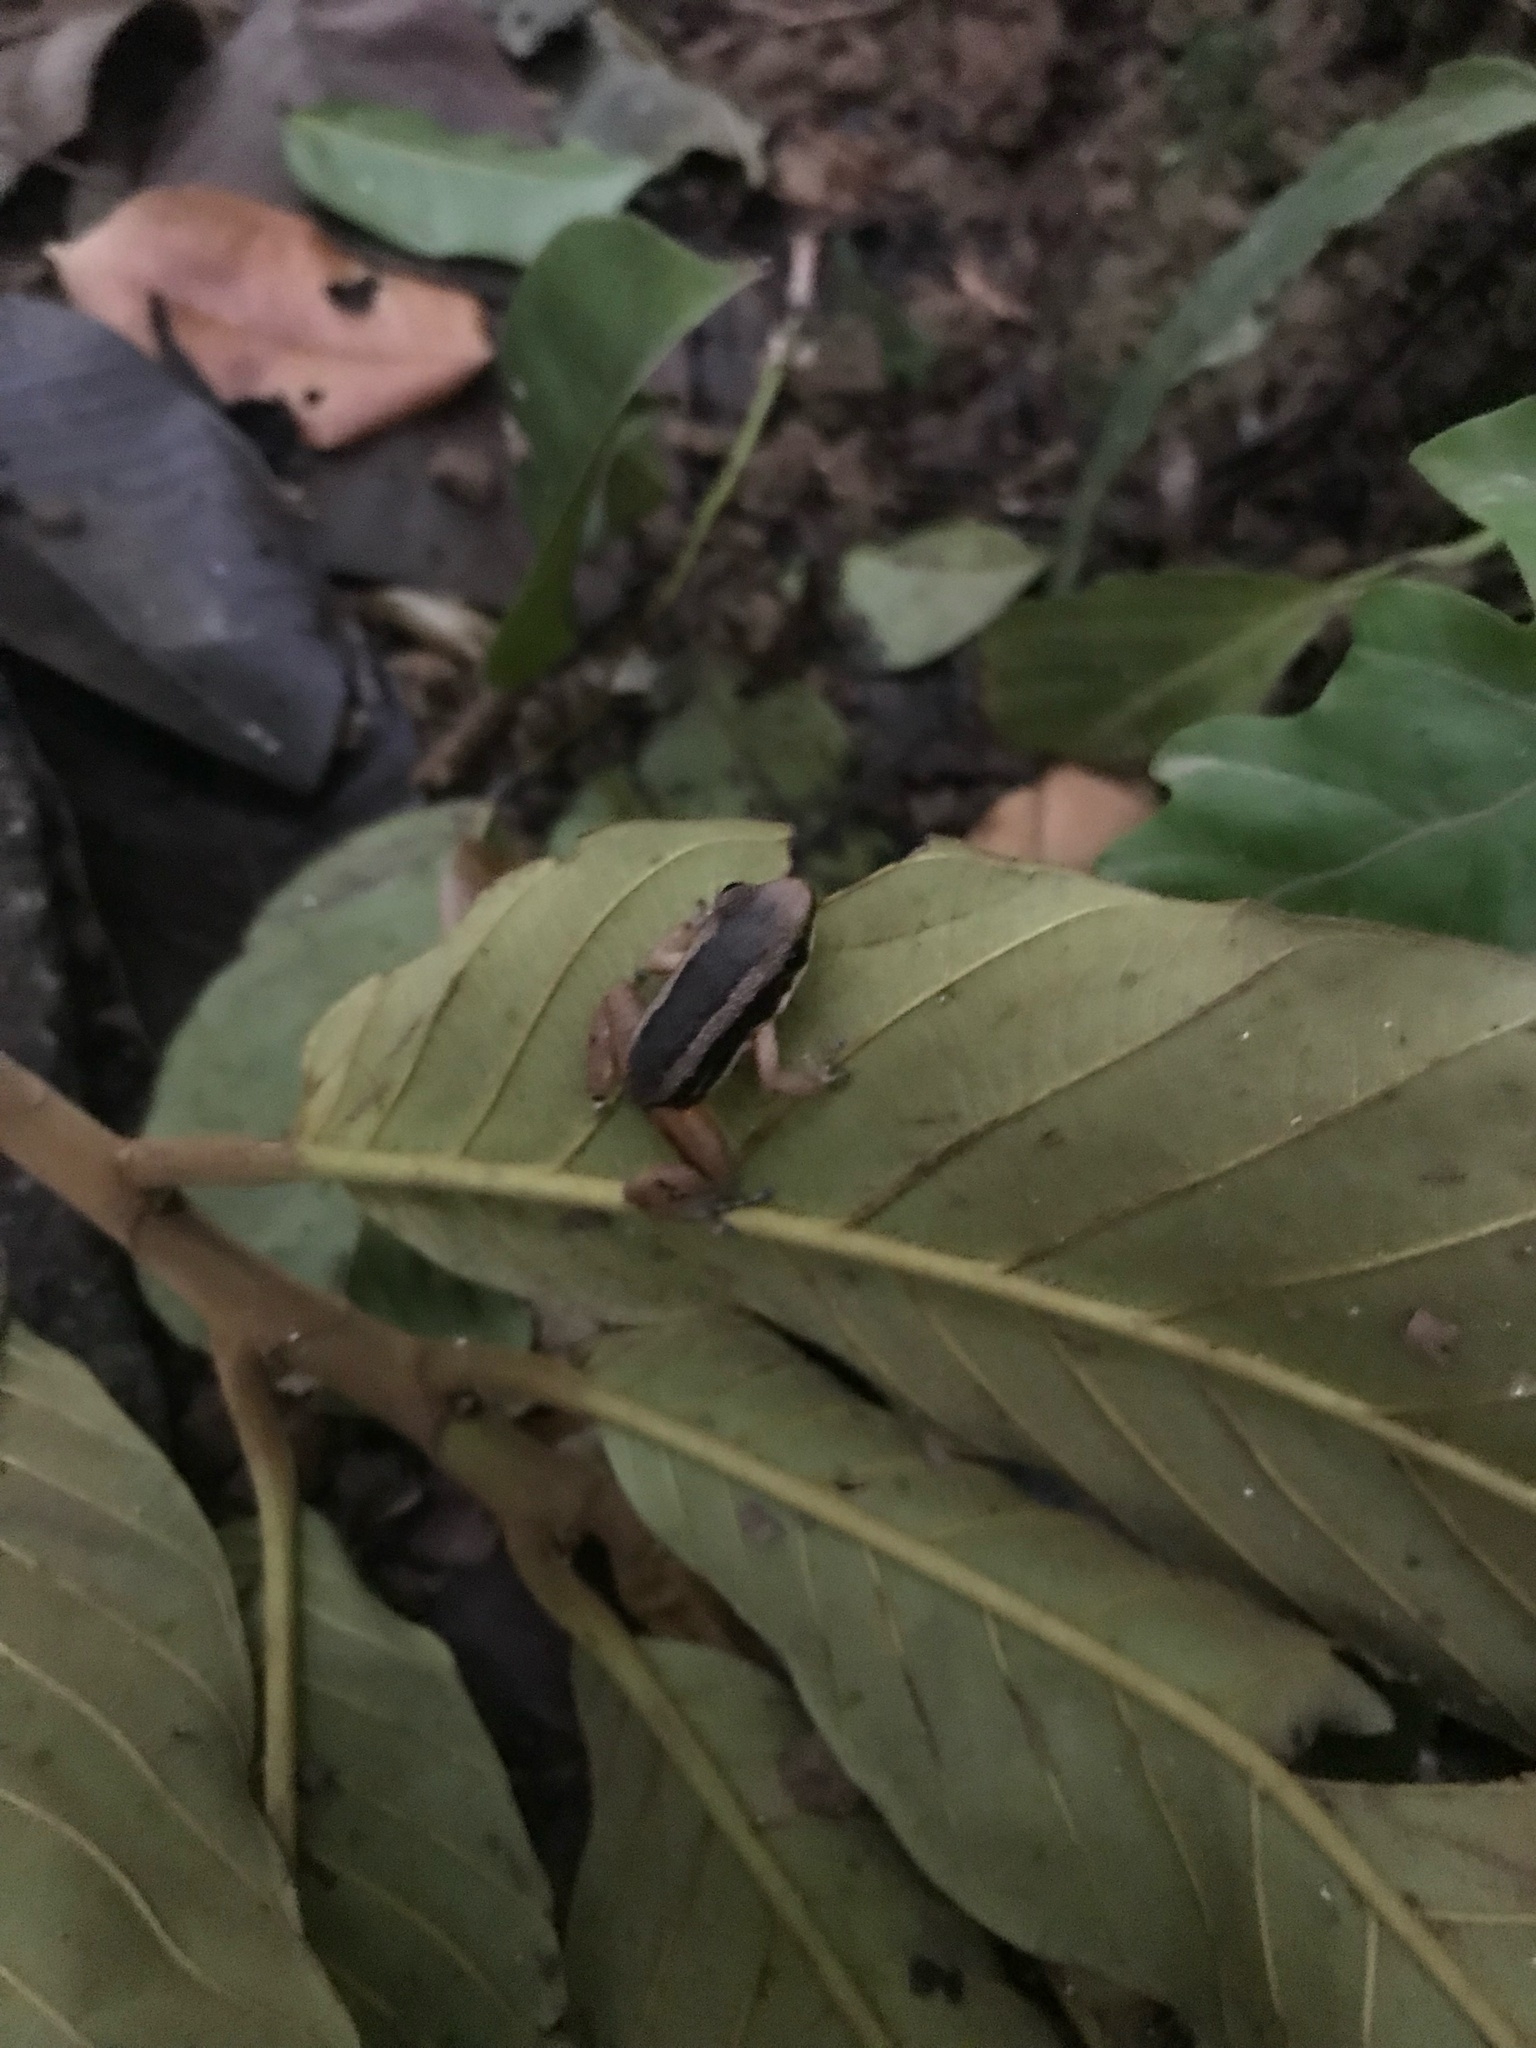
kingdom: Animalia
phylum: Chordata
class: Amphibia
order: Anura
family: Aromobatidae
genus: Allobates
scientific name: Allobates talamancae
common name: Talamanca rocket frog
